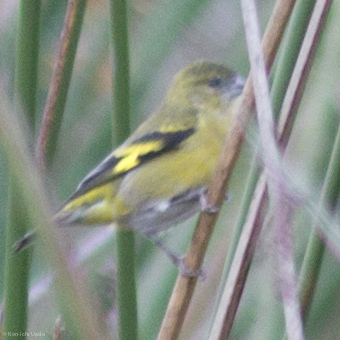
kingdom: Animalia
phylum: Chordata
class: Aves
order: Passeriformes
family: Fringillidae
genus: Spinus
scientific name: Spinus spinescens
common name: Andean siskin
